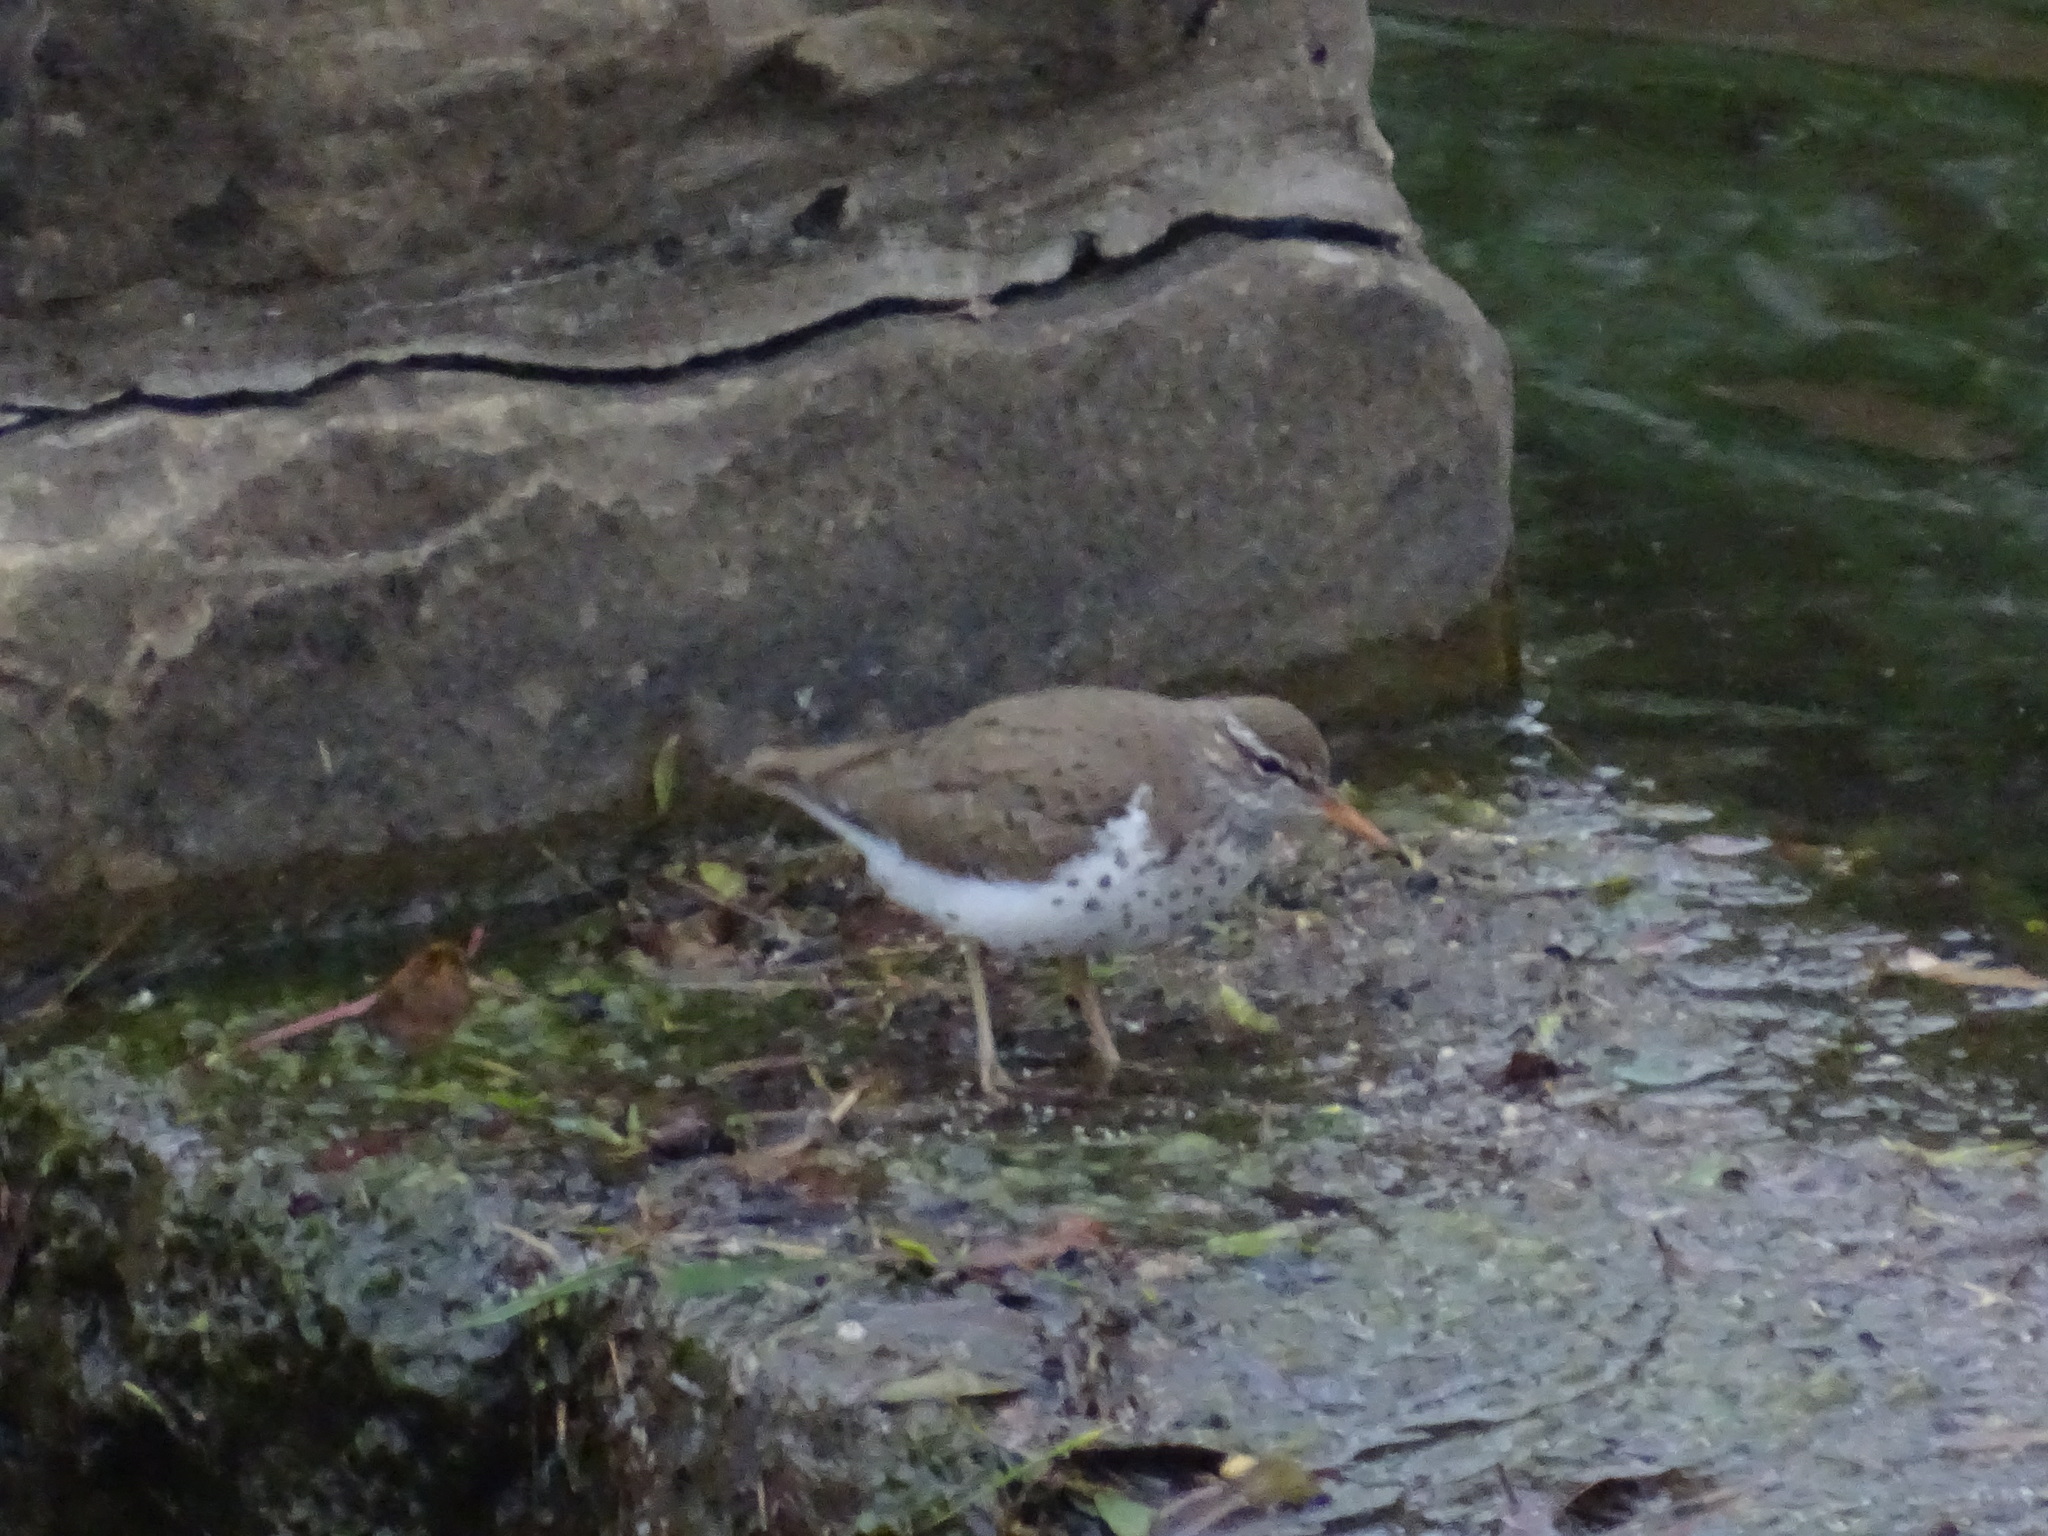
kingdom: Animalia
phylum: Chordata
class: Aves
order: Charadriiformes
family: Scolopacidae
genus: Actitis
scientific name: Actitis macularius
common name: Spotted sandpiper
